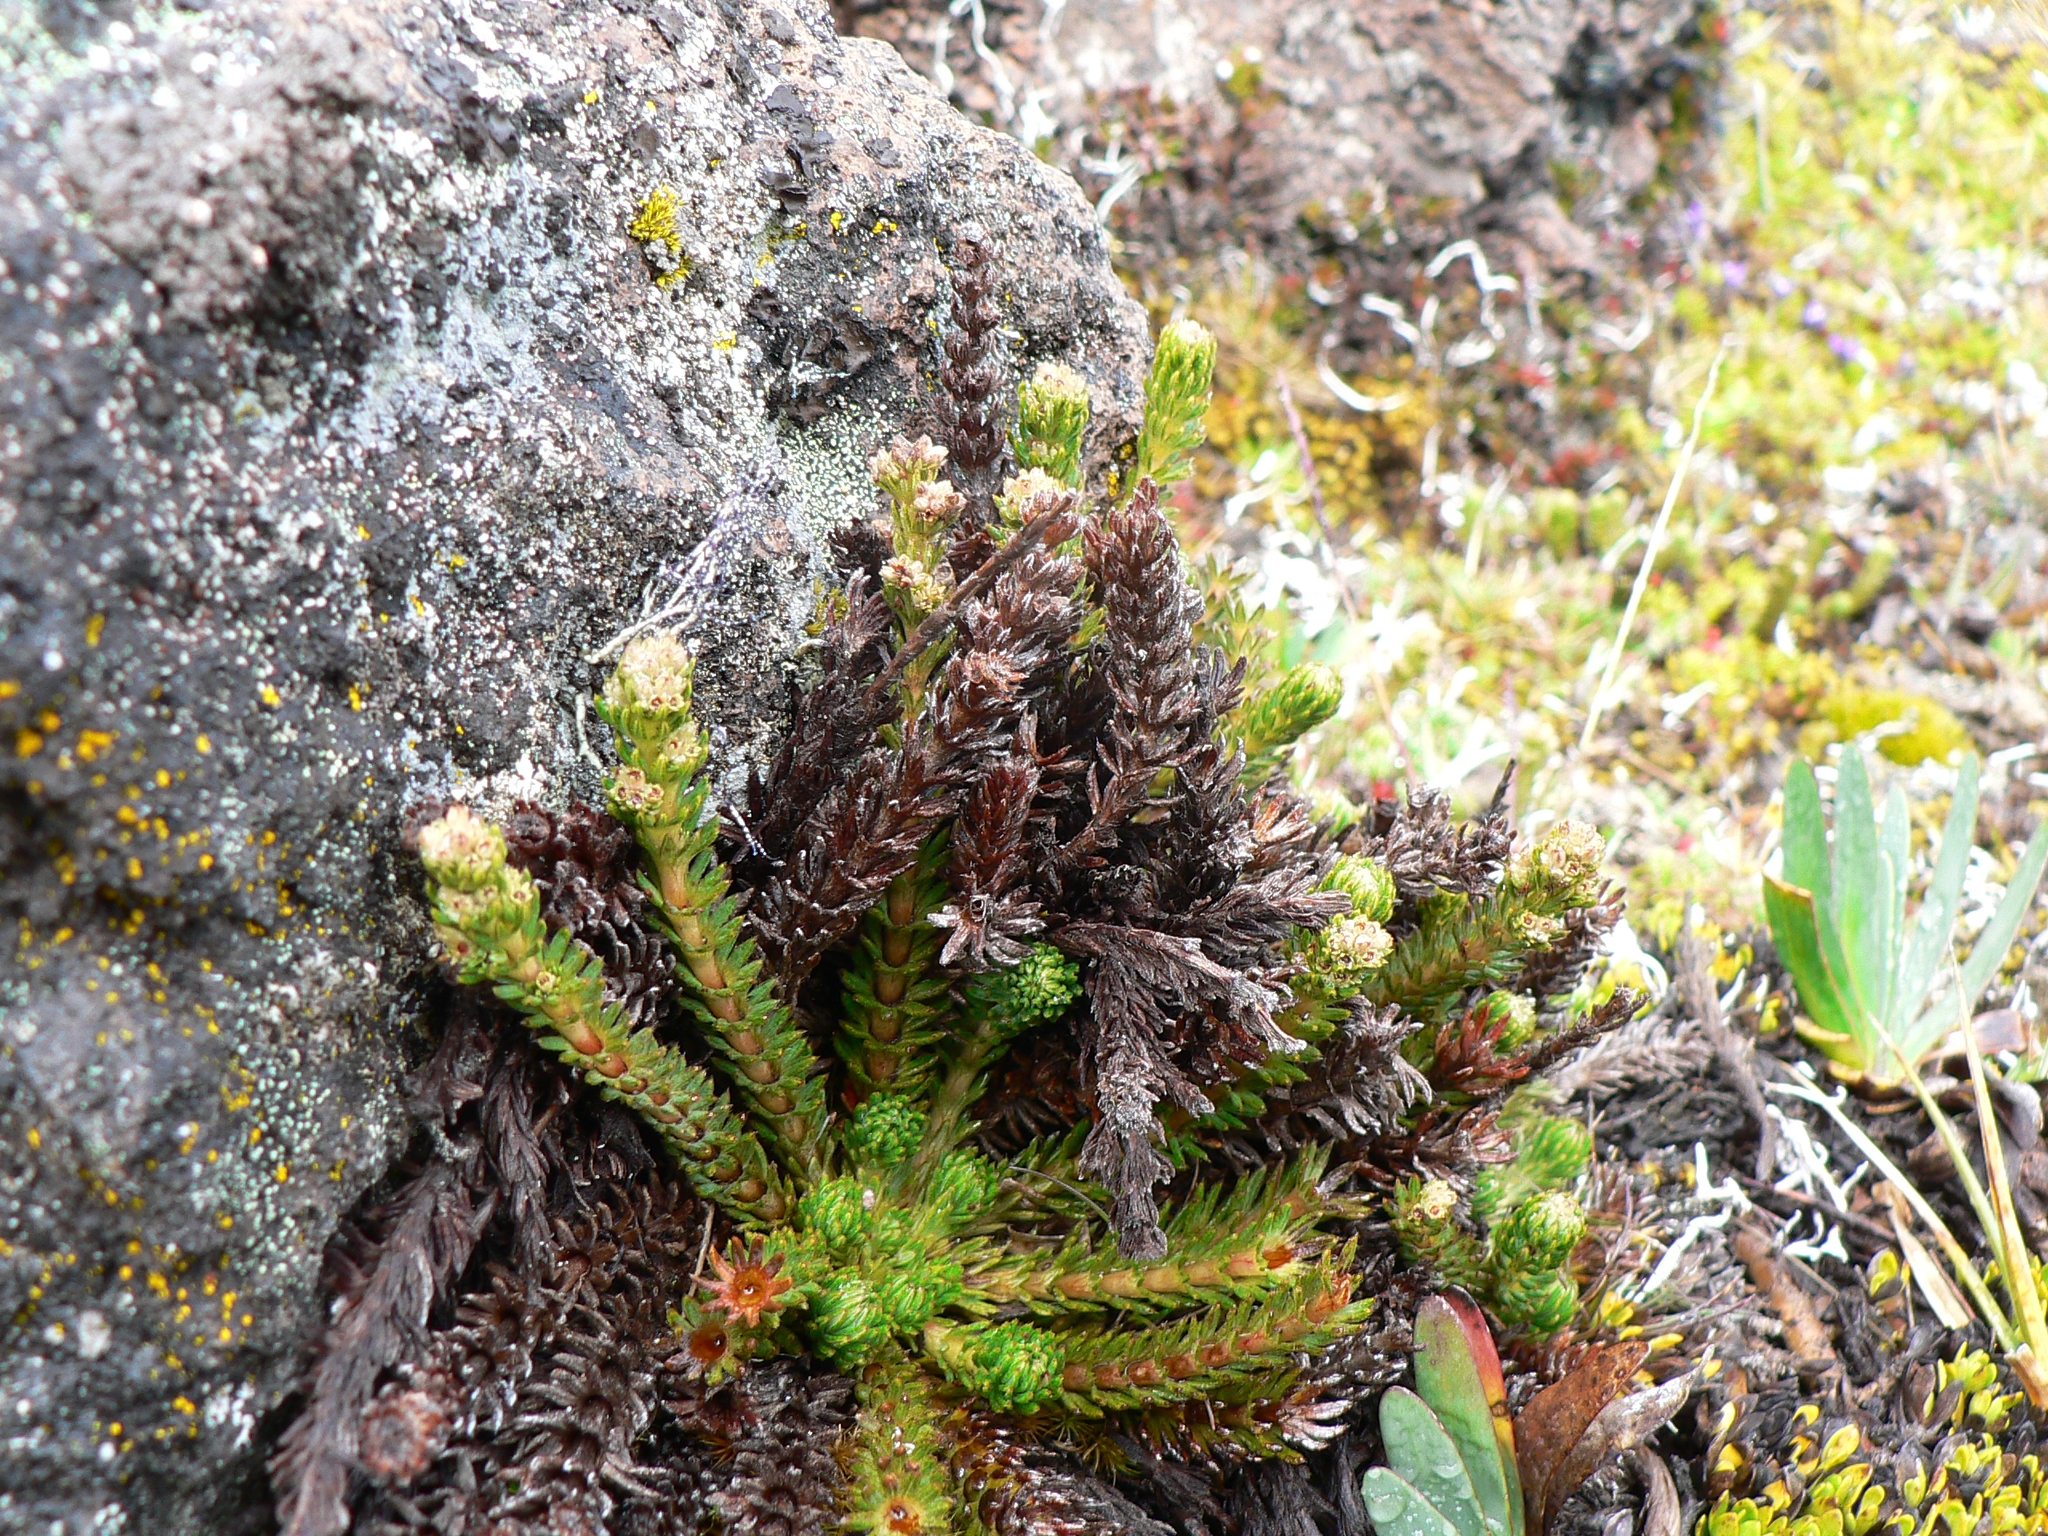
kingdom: Plantae
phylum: Tracheophyta
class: Magnoliopsida
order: Rosales
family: Rosaceae
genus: Lachemilla
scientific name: Lachemilla hispidula
